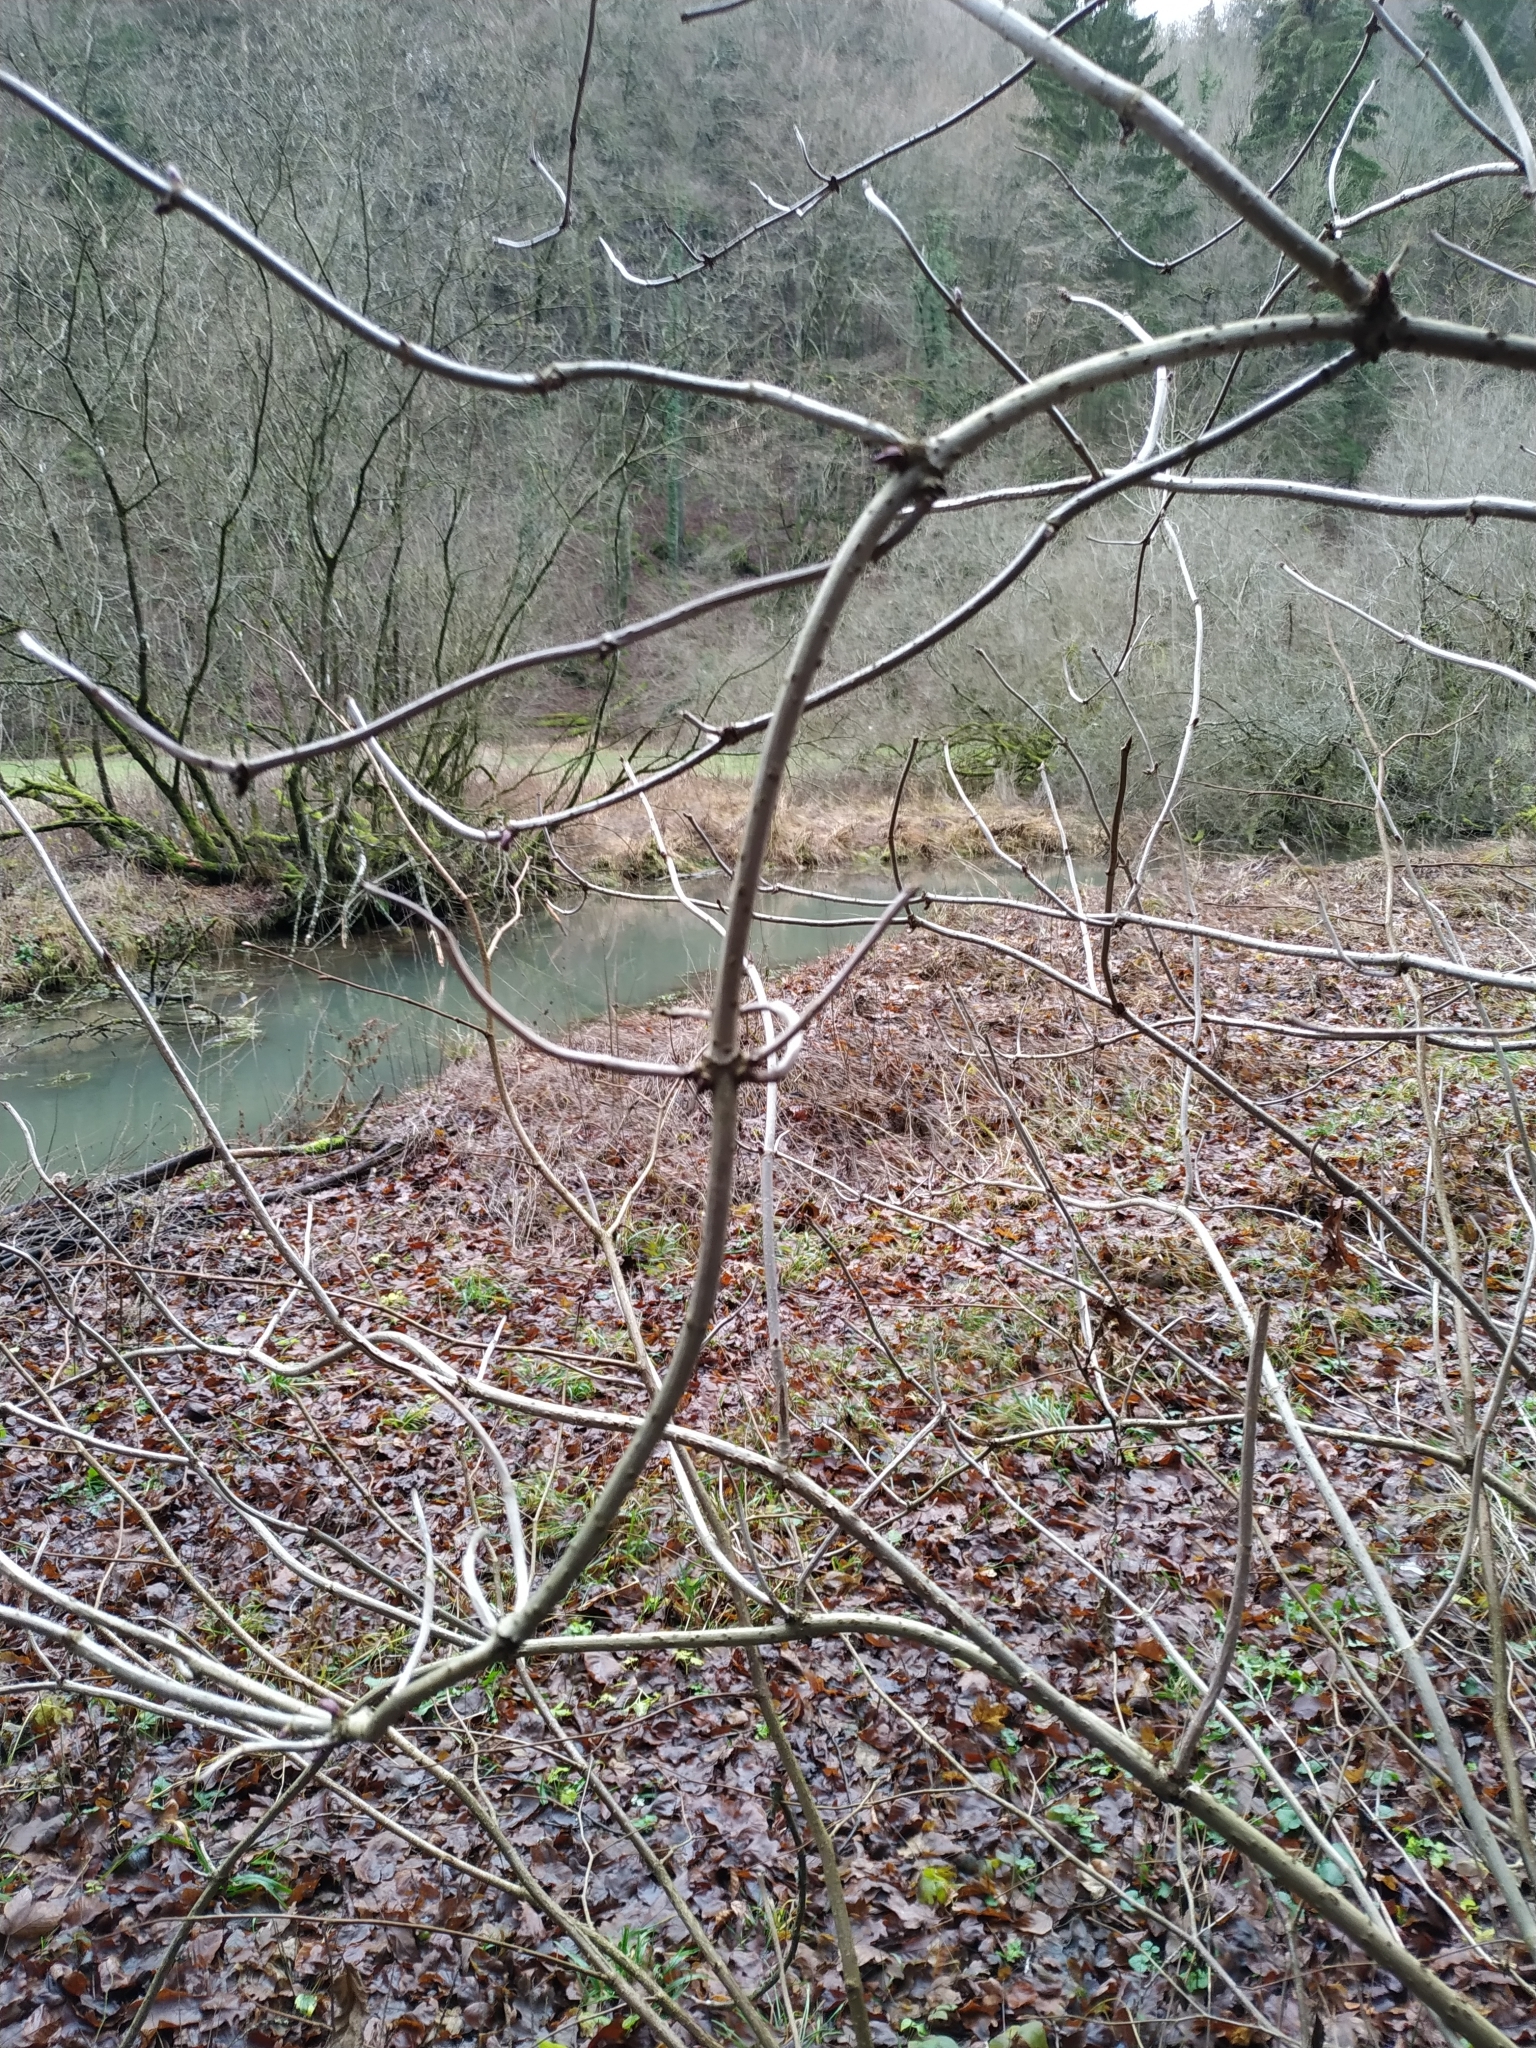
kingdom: Plantae
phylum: Tracheophyta
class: Magnoliopsida
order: Dipsacales
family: Viburnaceae
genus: Sambucus
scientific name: Sambucus nigra
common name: Elder
